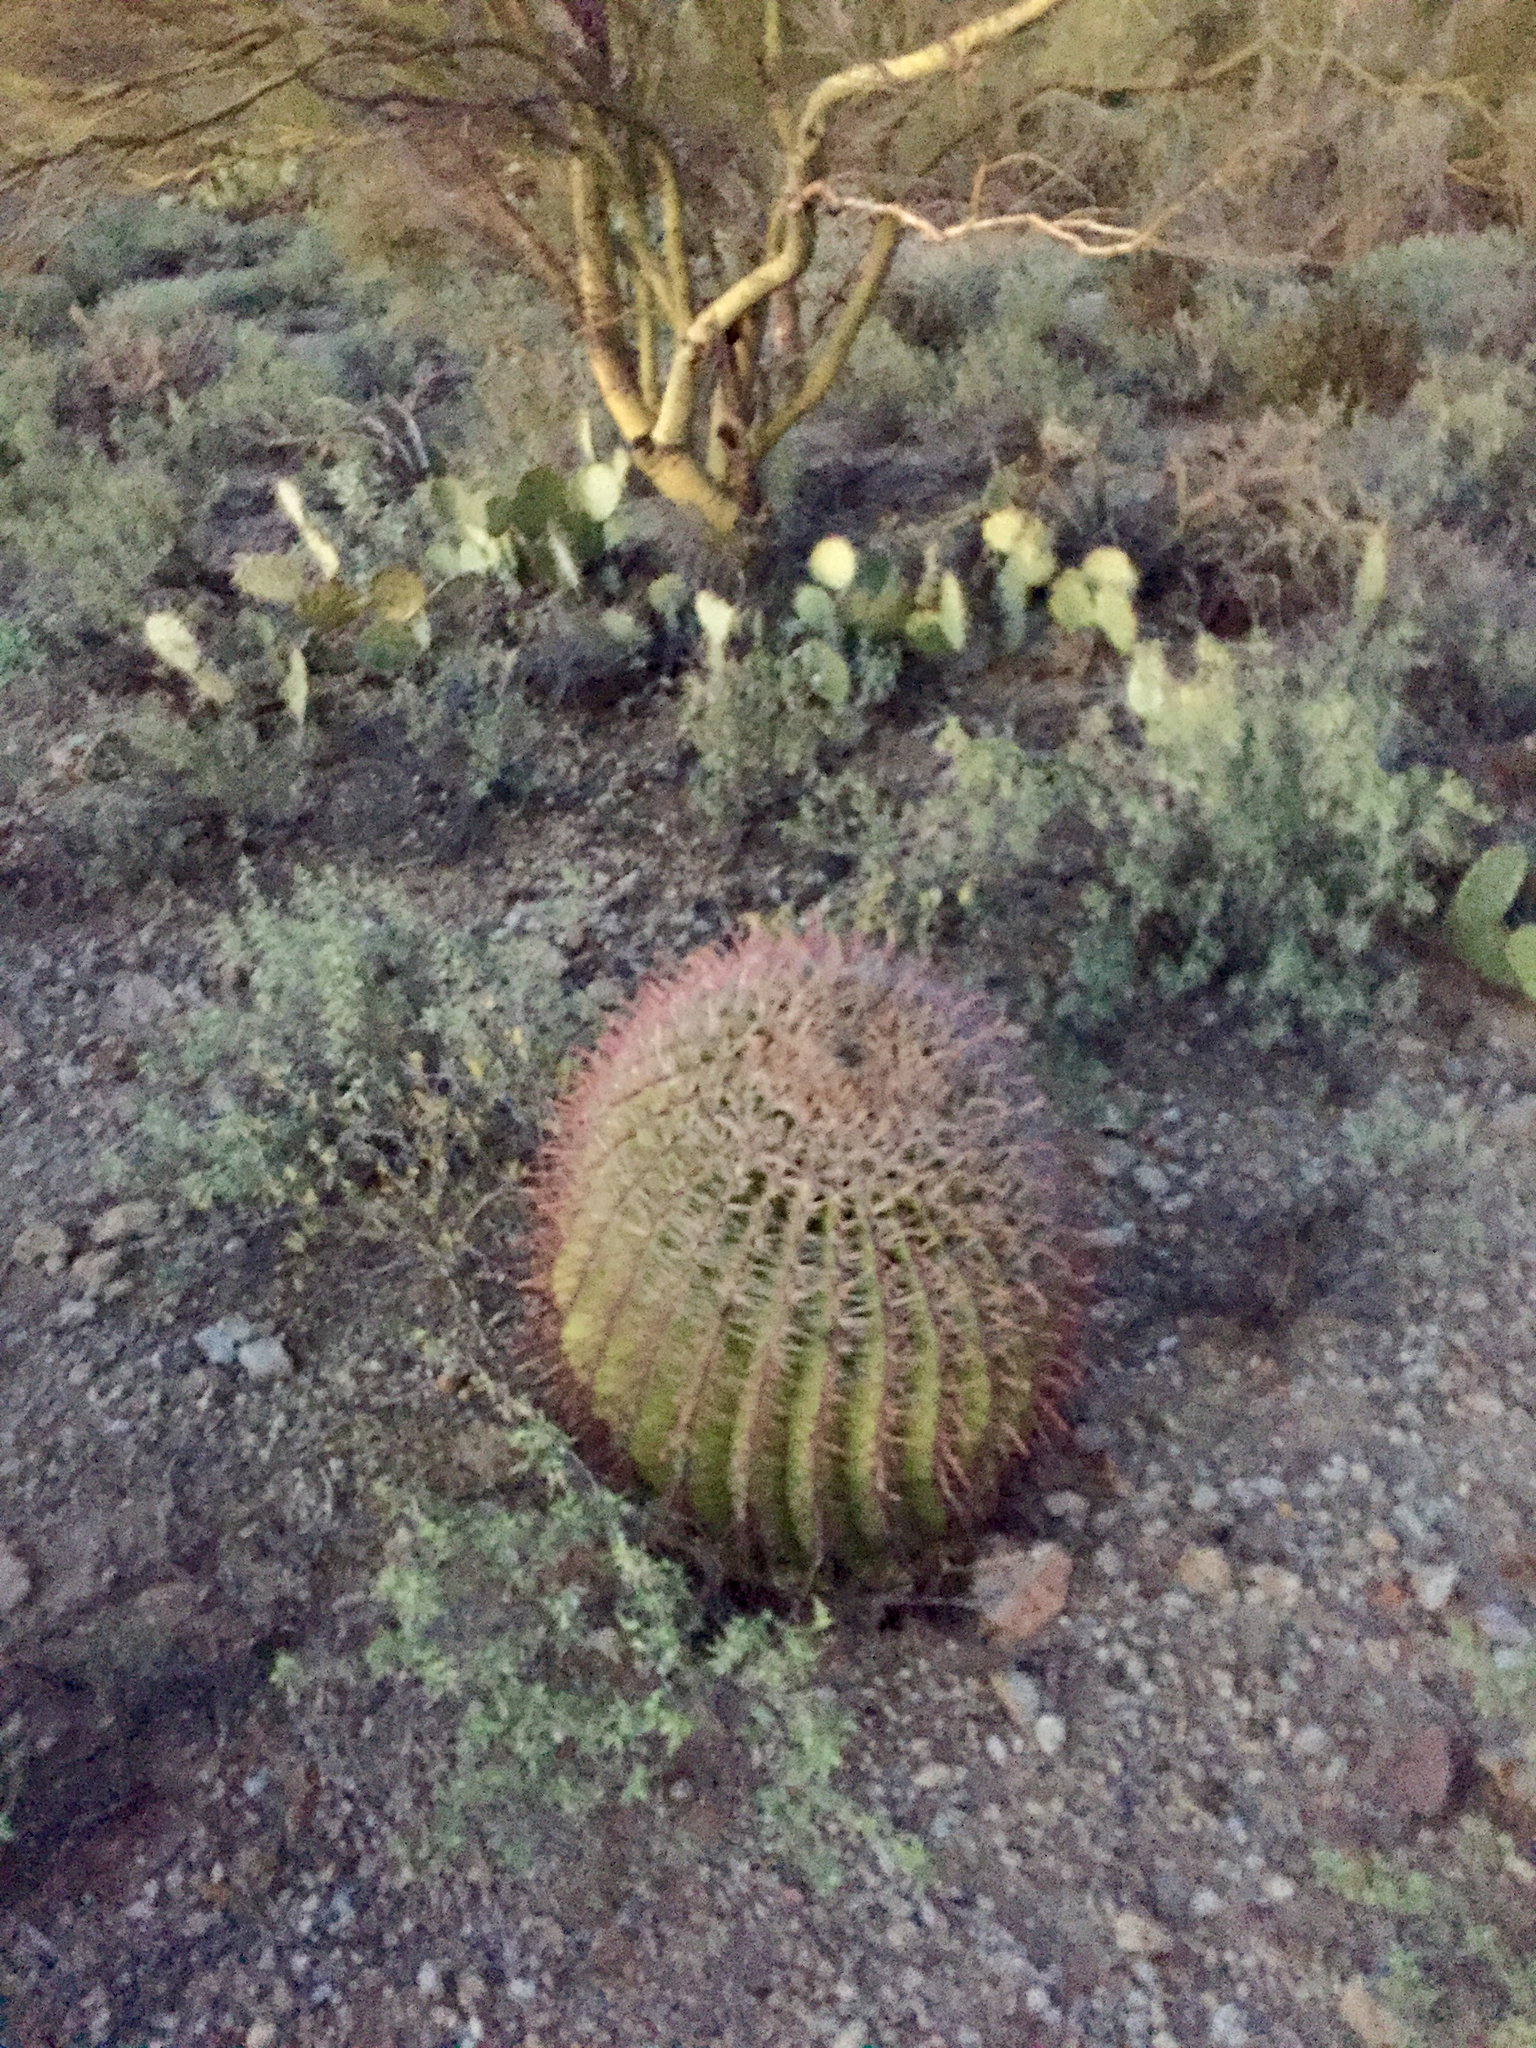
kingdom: Plantae
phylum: Tracheophyta
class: Magnoliopsida
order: Caryophyllales
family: Cactaceae
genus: Ferocactus
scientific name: Ferocactus wislizeni
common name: Candy barrel cactus
